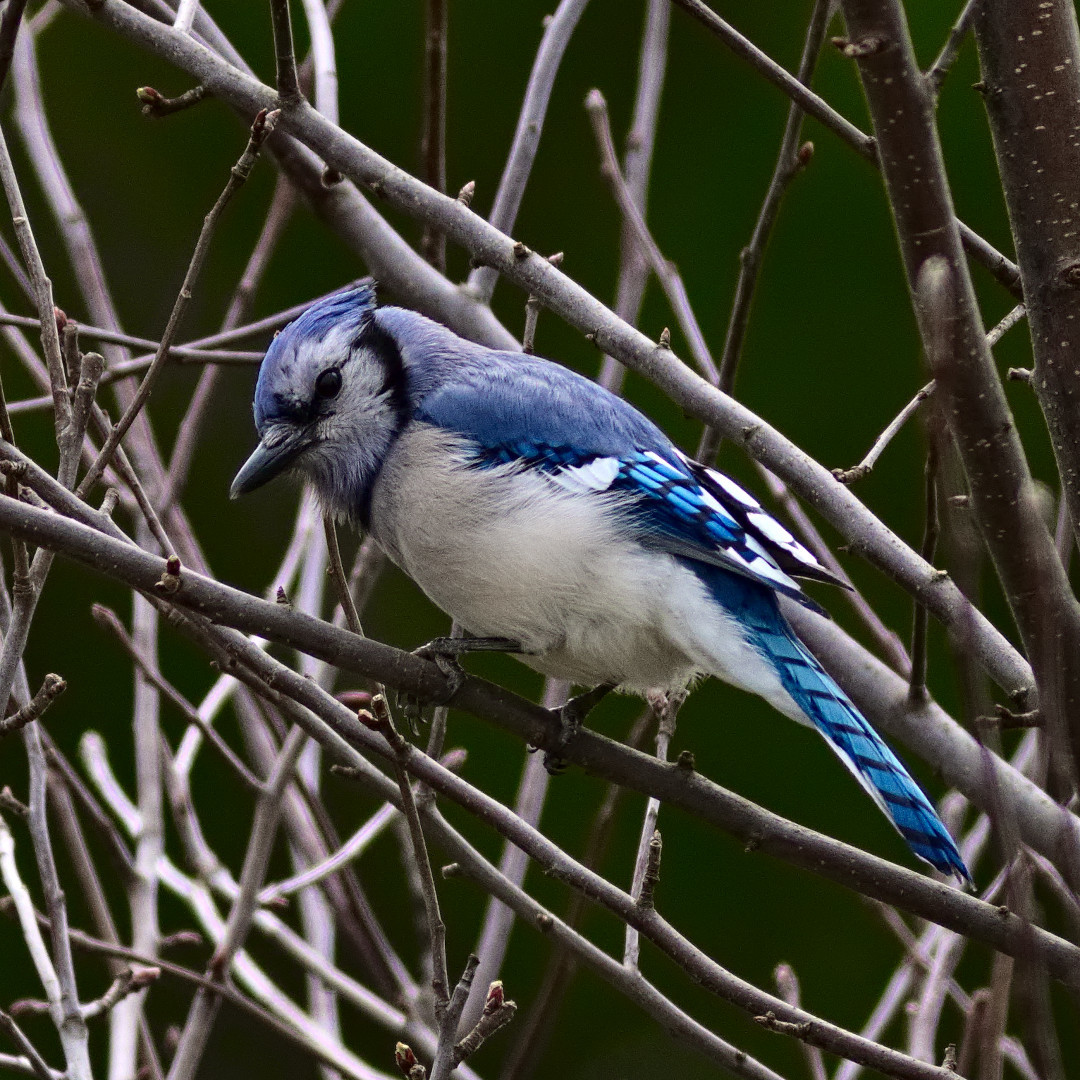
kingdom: Animalia
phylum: Chordata
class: Aves
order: Passeriformes
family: Corvidae
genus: Cyanocitta
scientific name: Cyanocitta cristata
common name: Blue jay
